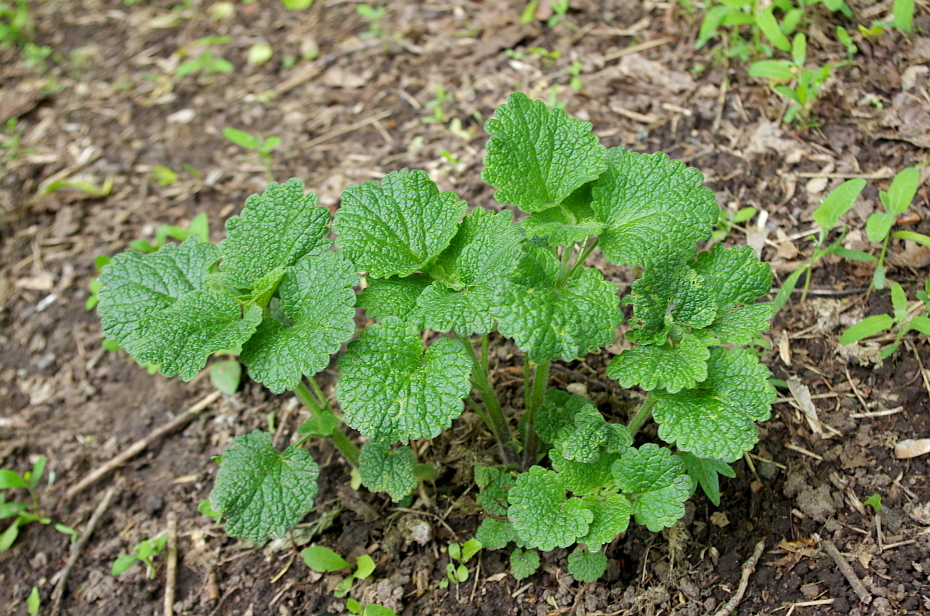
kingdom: Plantae
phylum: Tracheophyta
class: Magnoliopsida
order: Lamiales
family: Lamiaceae
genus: Ballota
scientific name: Ballota nigra
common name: Black horehound
